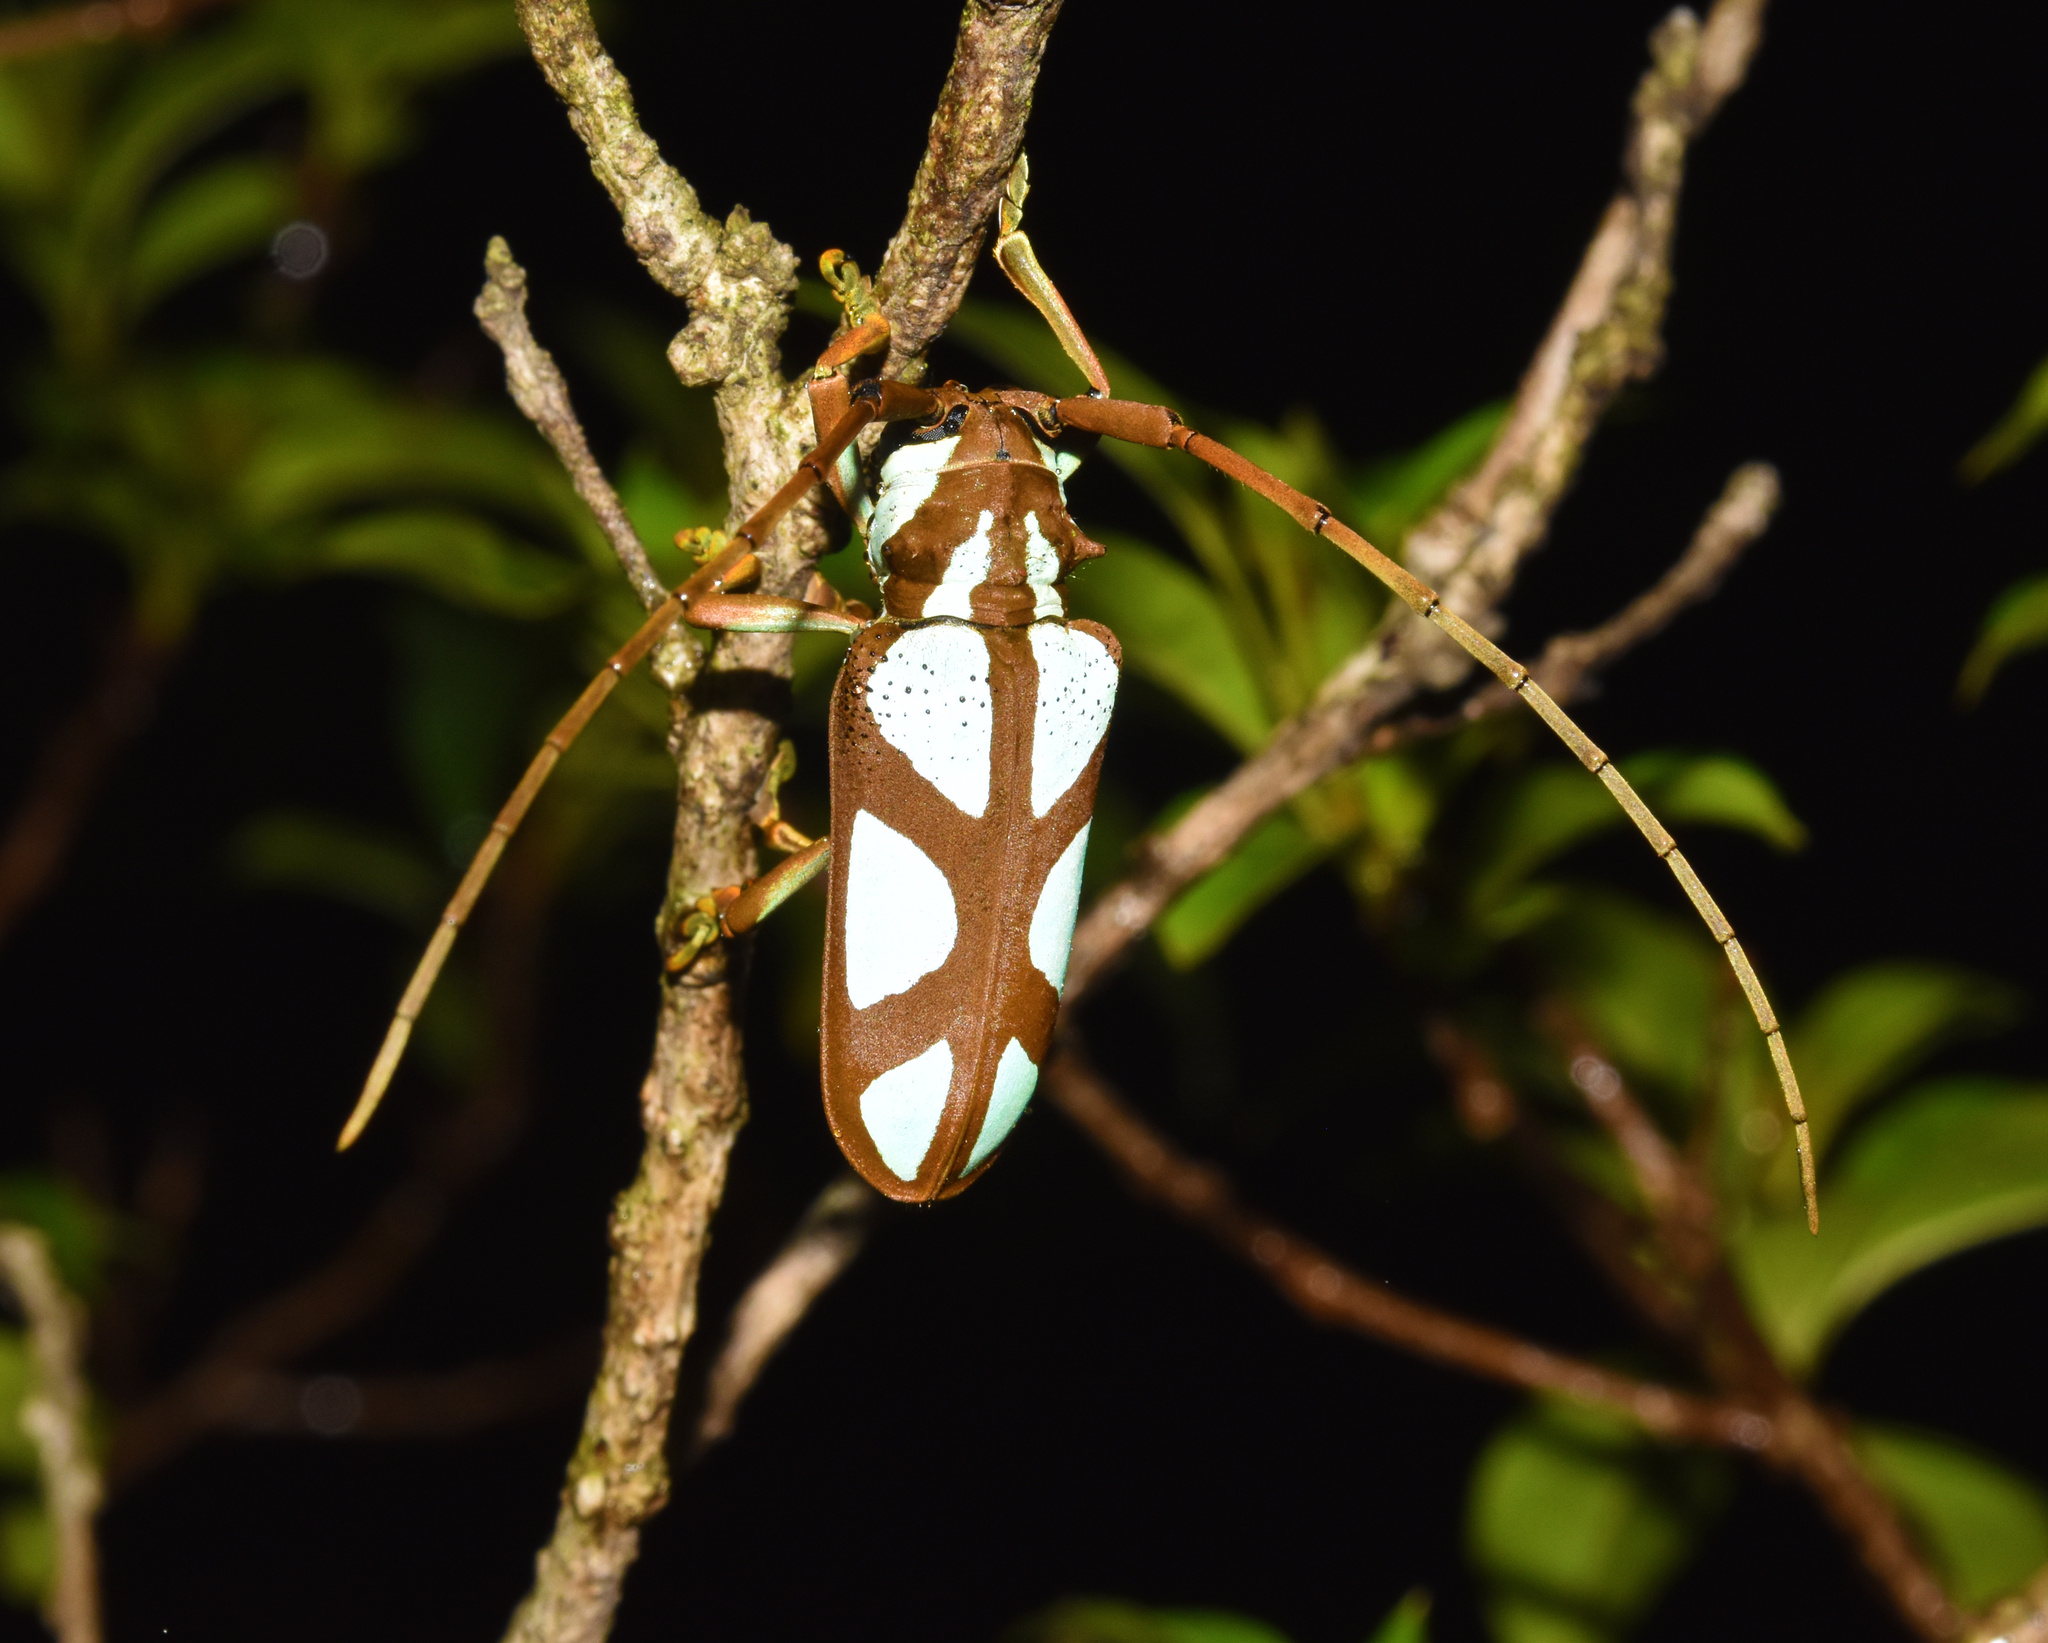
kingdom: Animalia
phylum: Arthropoda
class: Insecta
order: Coleoptera
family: Cerambycidae
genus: Prosopocera
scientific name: Prosopocera lactator
